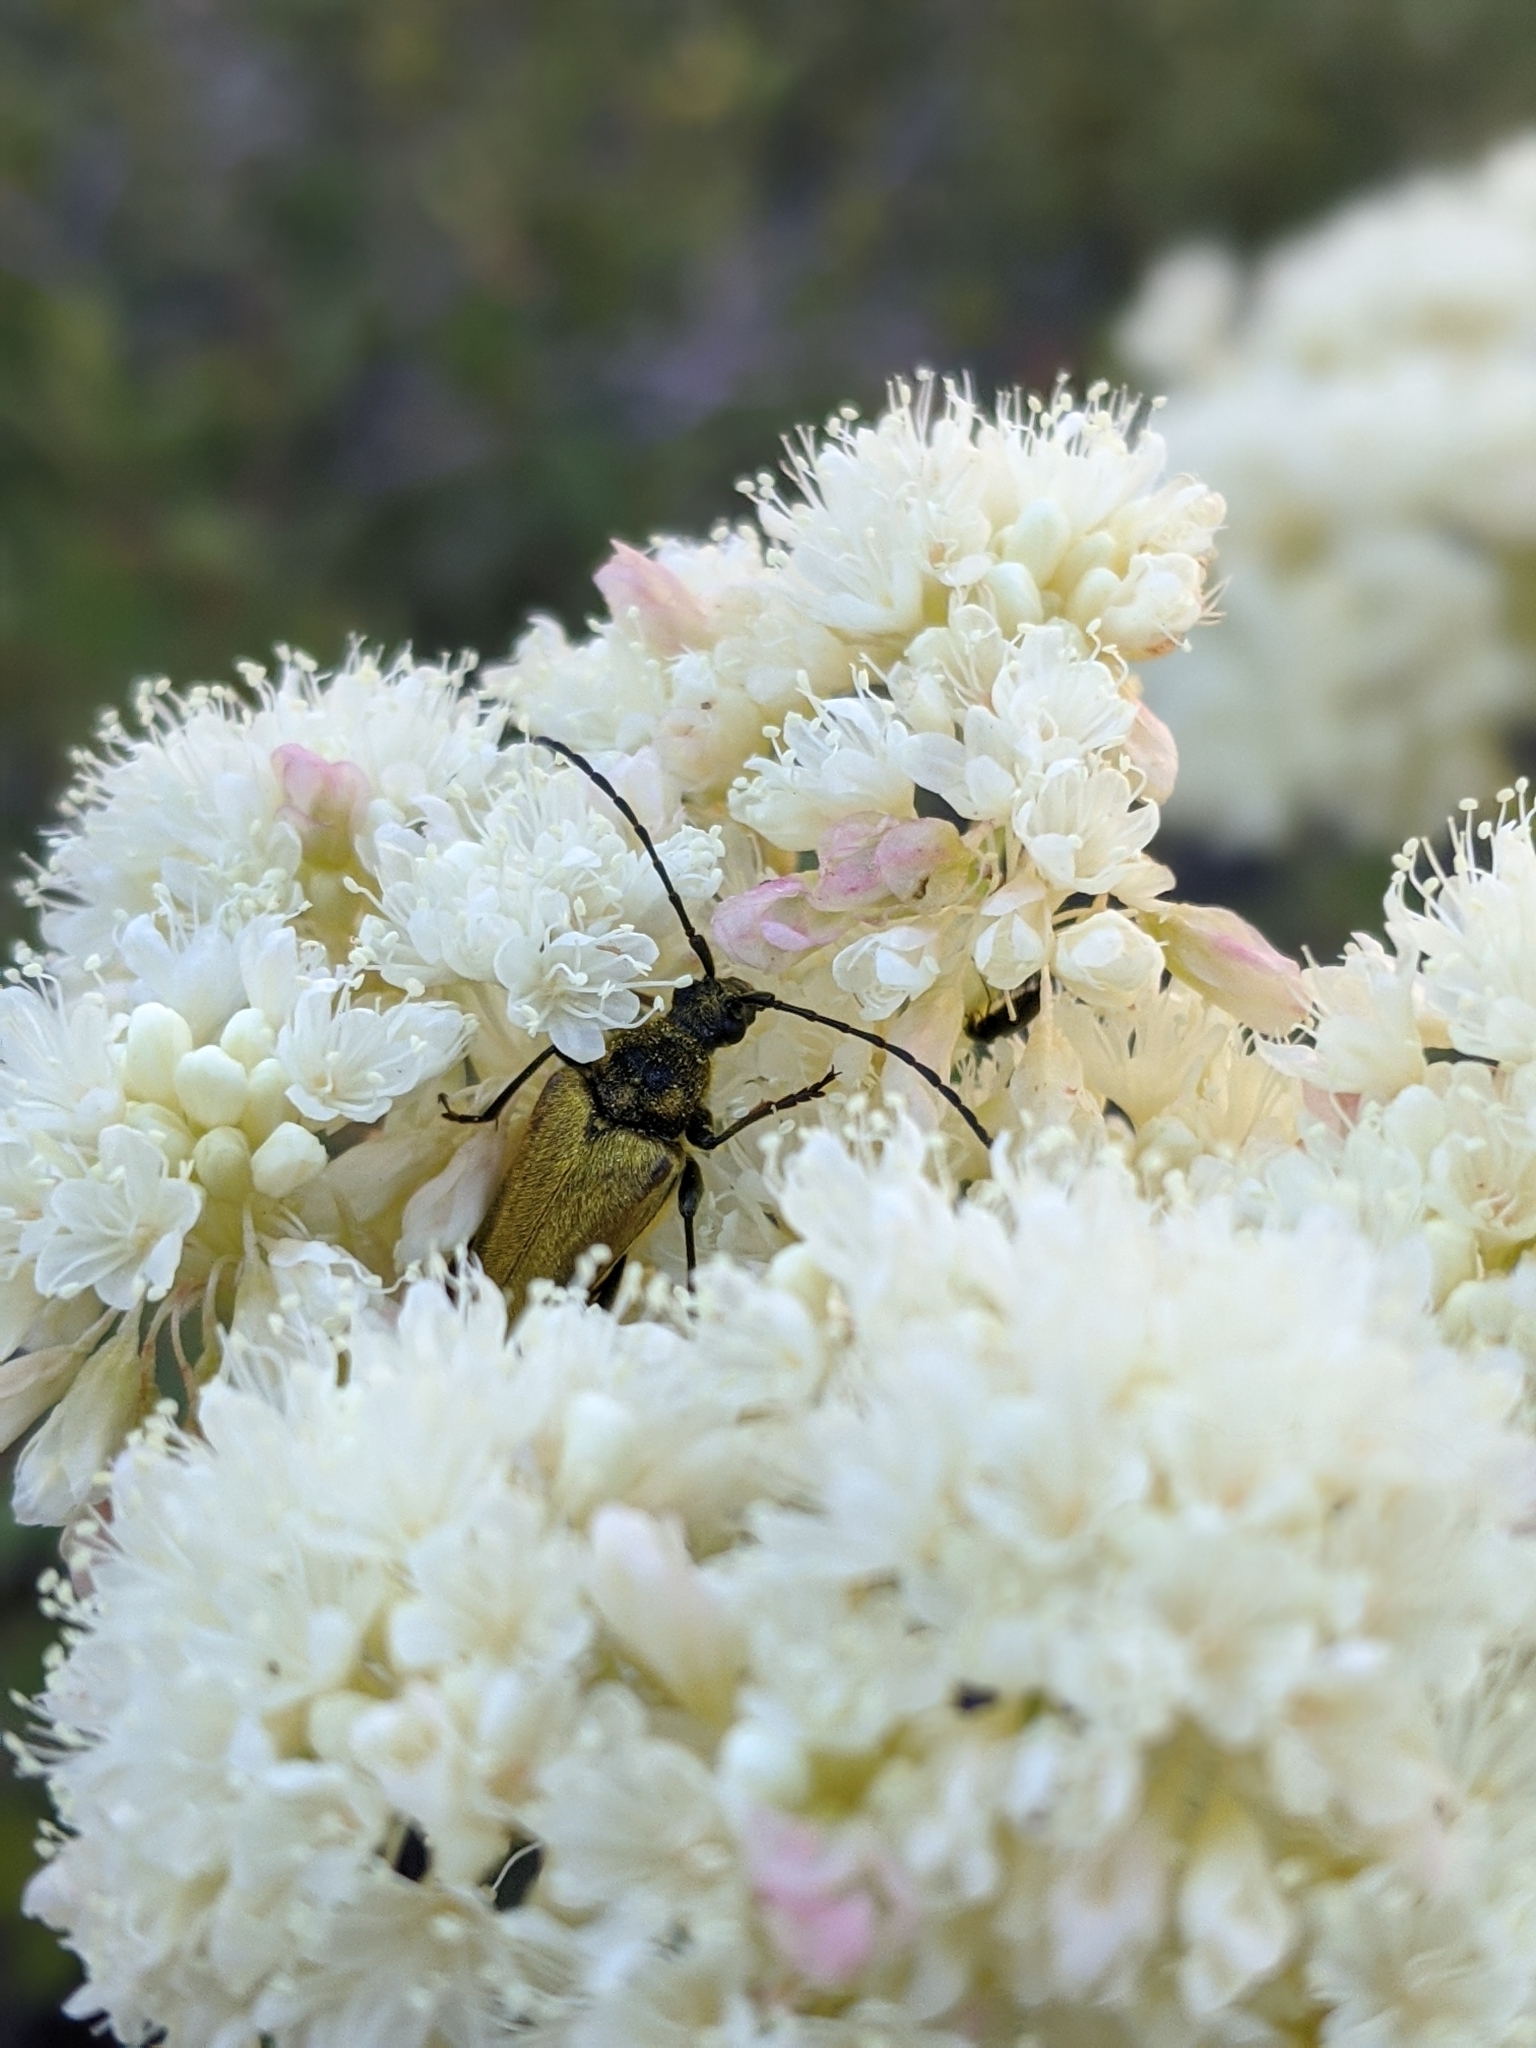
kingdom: Animalia
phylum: Arthropoda
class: Insecta
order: Coleoptera
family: Cerambycidae
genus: Cosmosalia
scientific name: Cosmosalia chrysocoma
